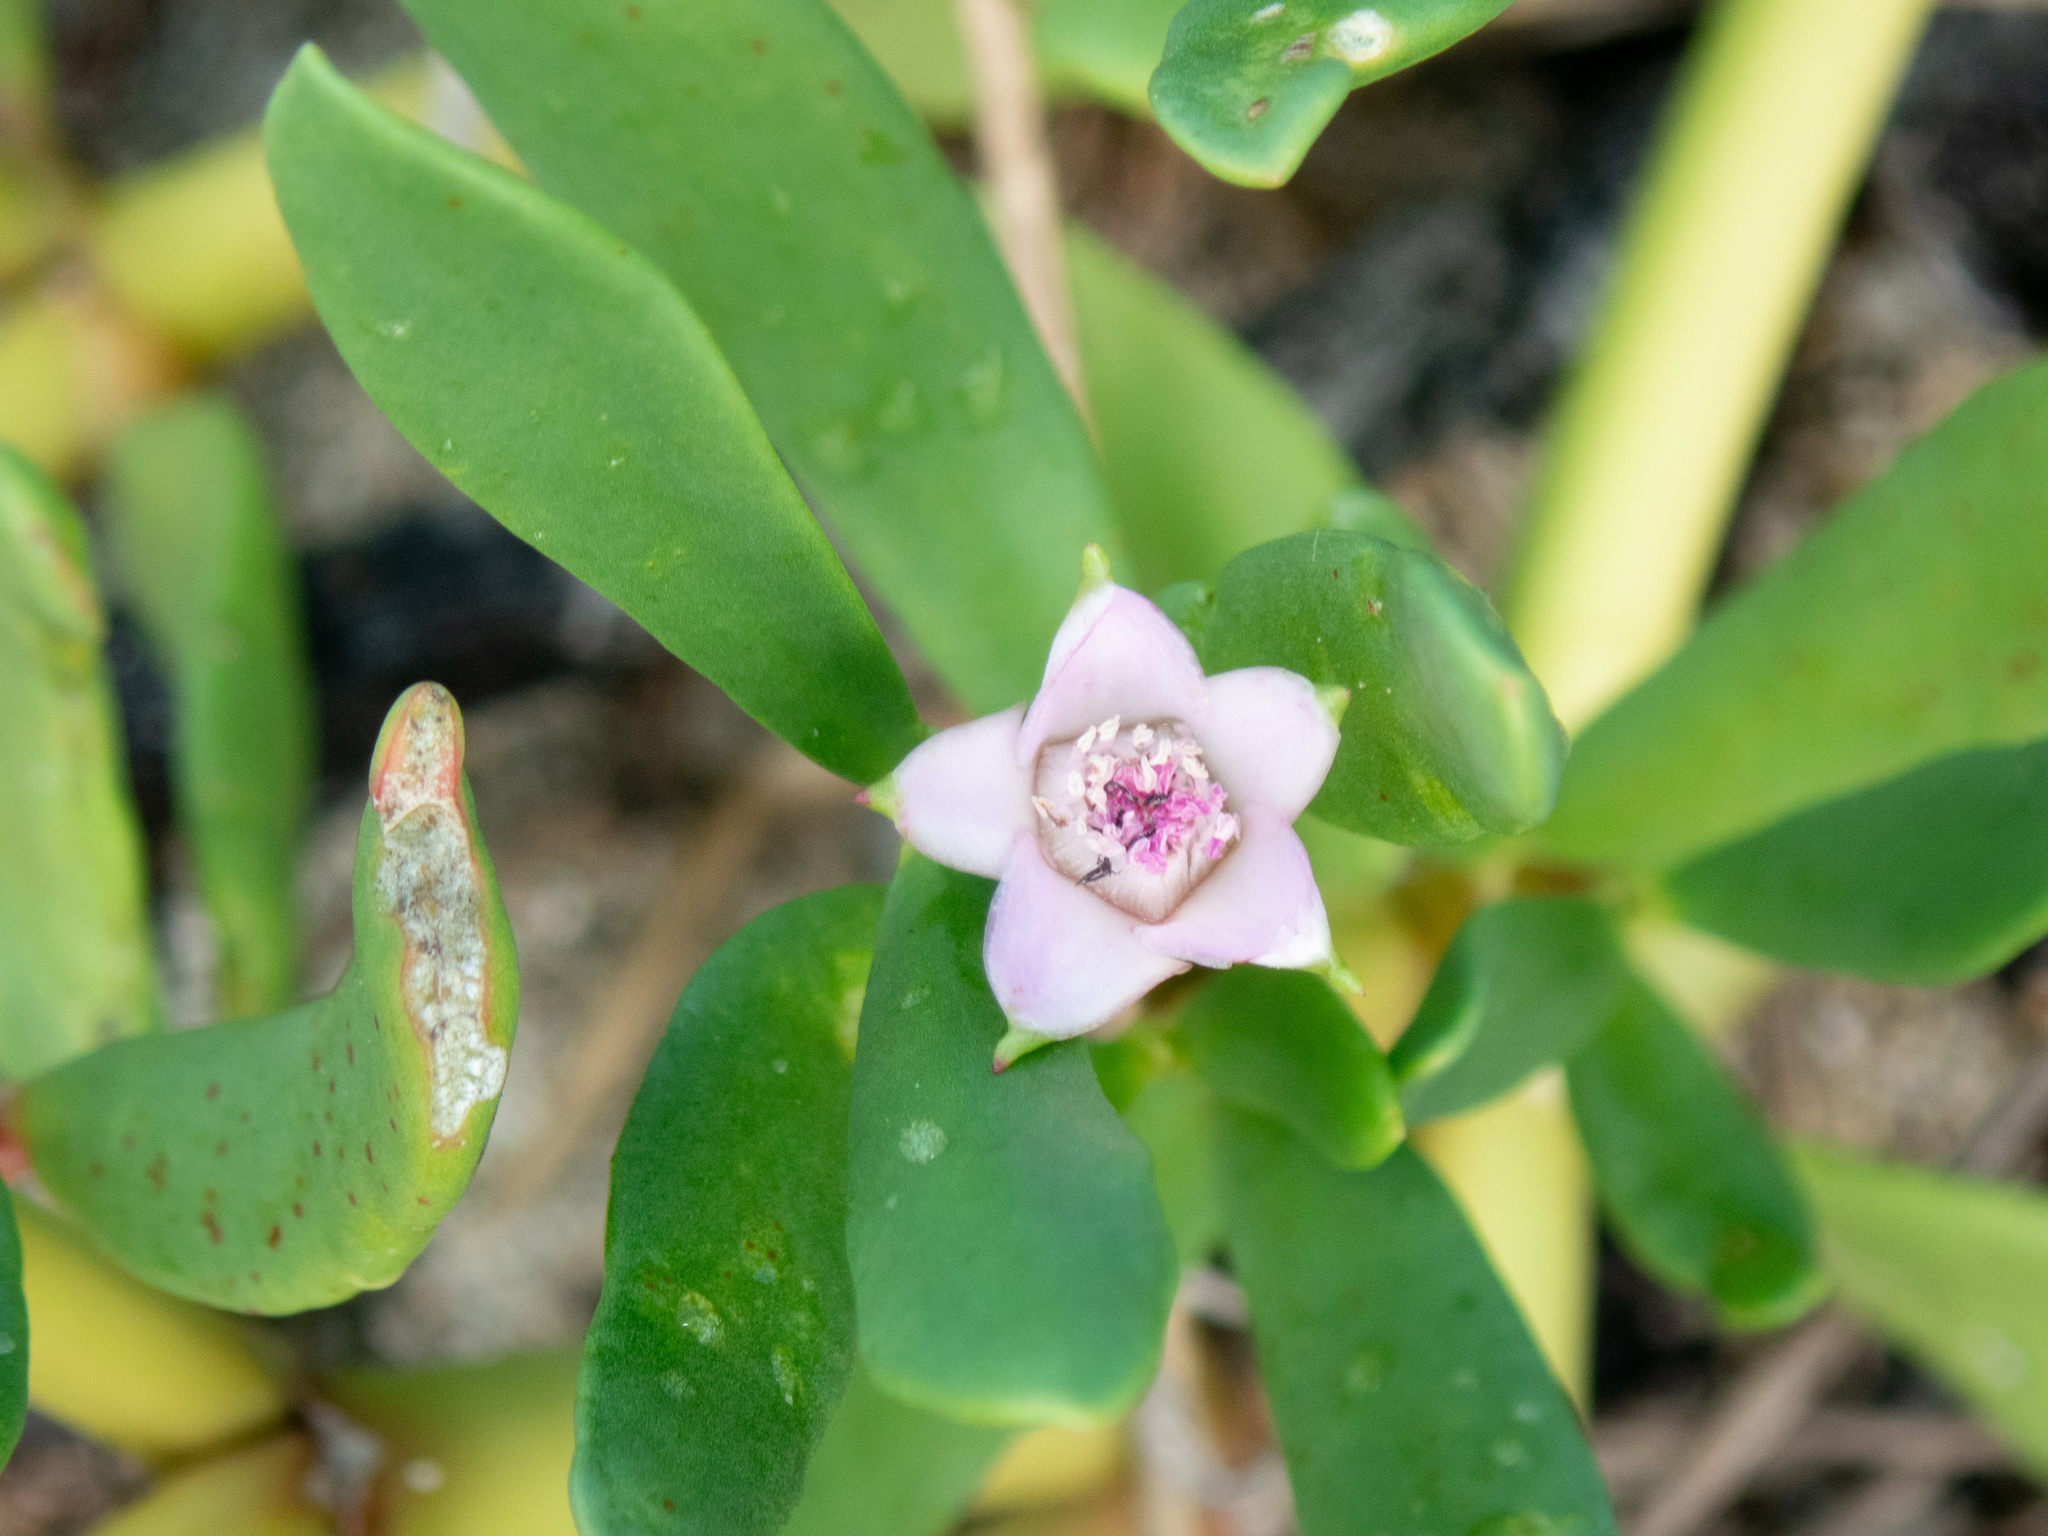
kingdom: Plantae
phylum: Tracheophyta
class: Magnoliopsida
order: Caryophyllales
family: Aizoaceae
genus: Sesuvium
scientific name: Sesuvium portulacastrum
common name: Sea-purslane
